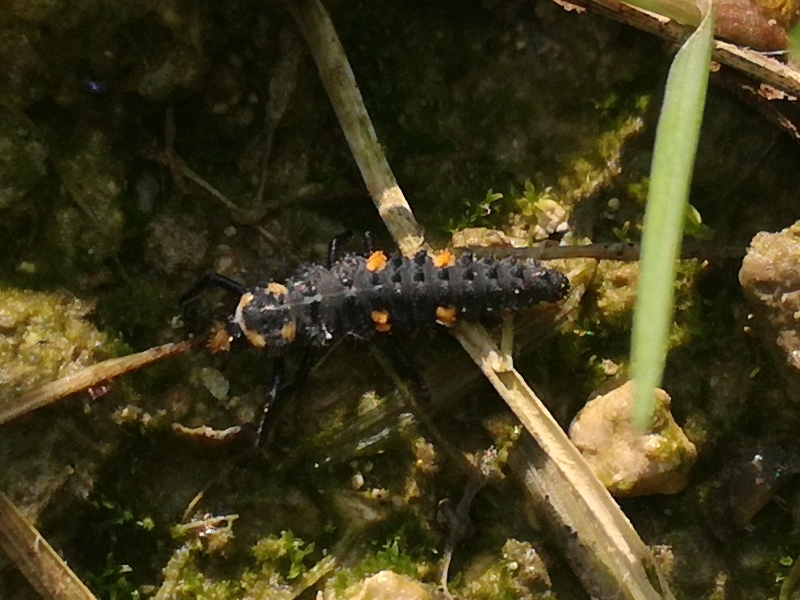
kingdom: Animalia
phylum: Arthropoda
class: Insecta
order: Coleoptera
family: Coccinellidae
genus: Coccinella
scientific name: Coccinella septempunctata
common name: Sevenspotted lady beetle
